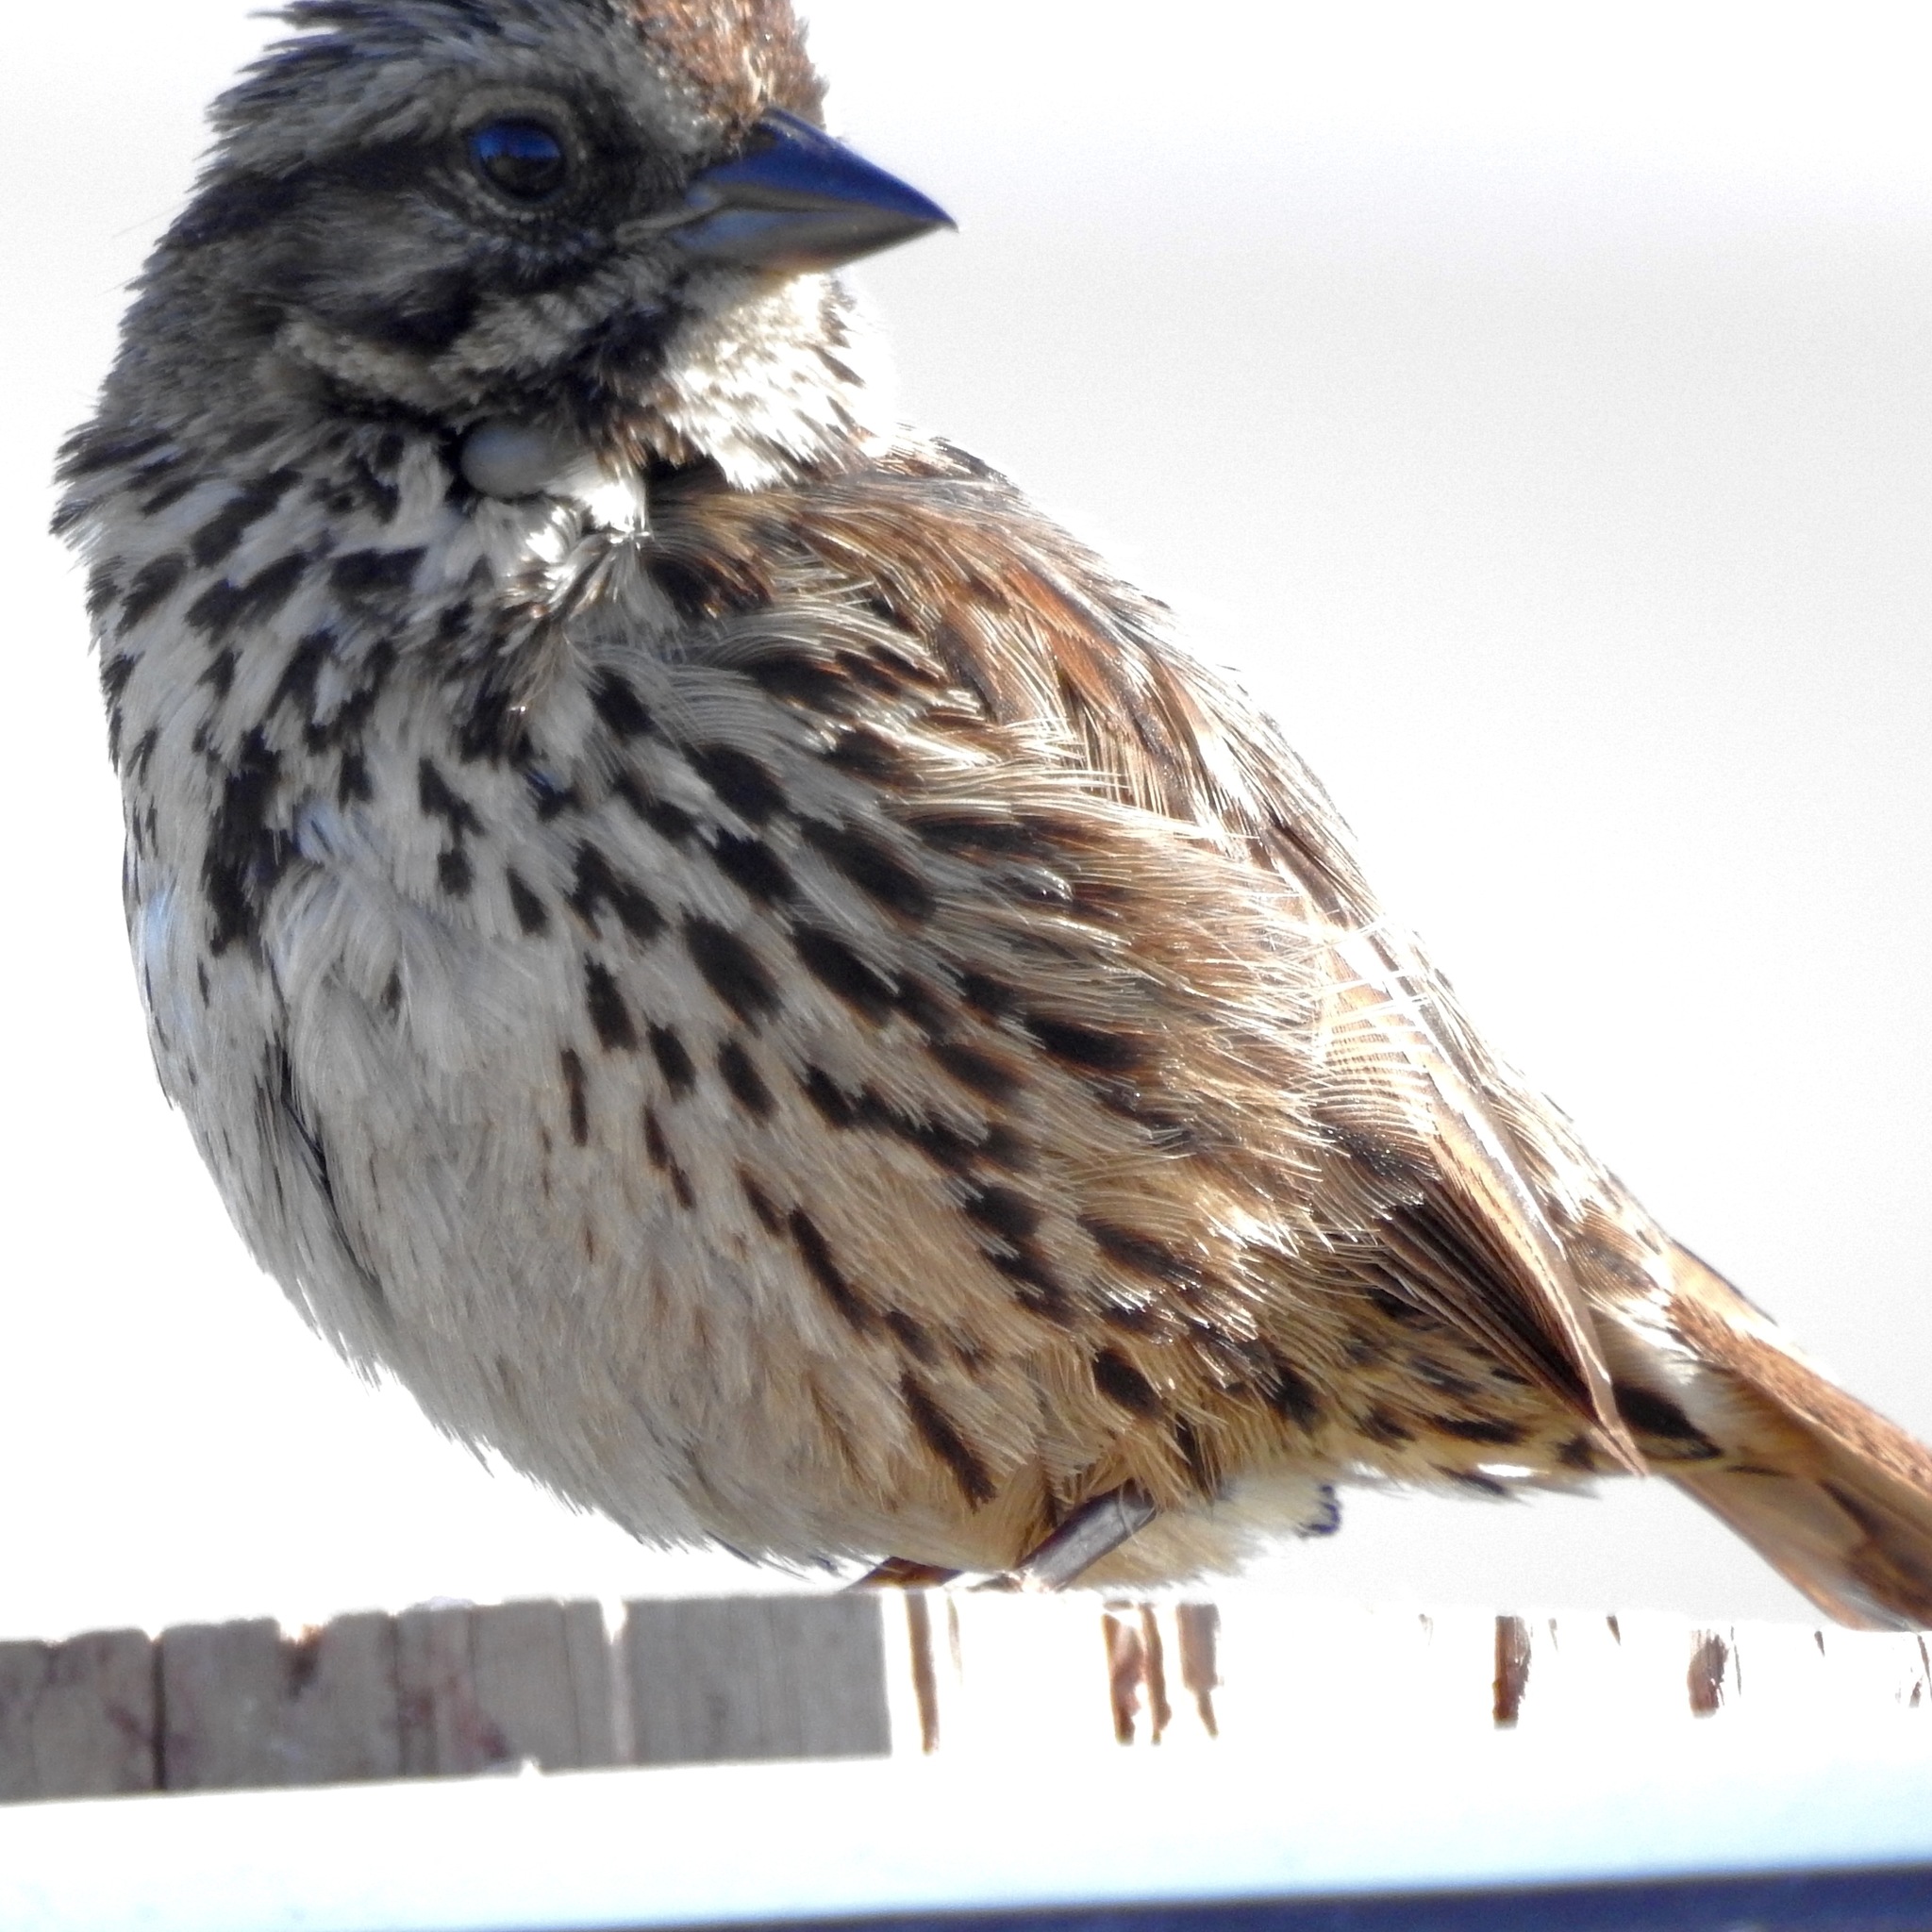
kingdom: Animalia
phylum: Chordata
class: Aves
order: Passeriformes
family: Passerellidae
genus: Melospiza
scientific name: Melospiza melodia
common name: Song sparrow
